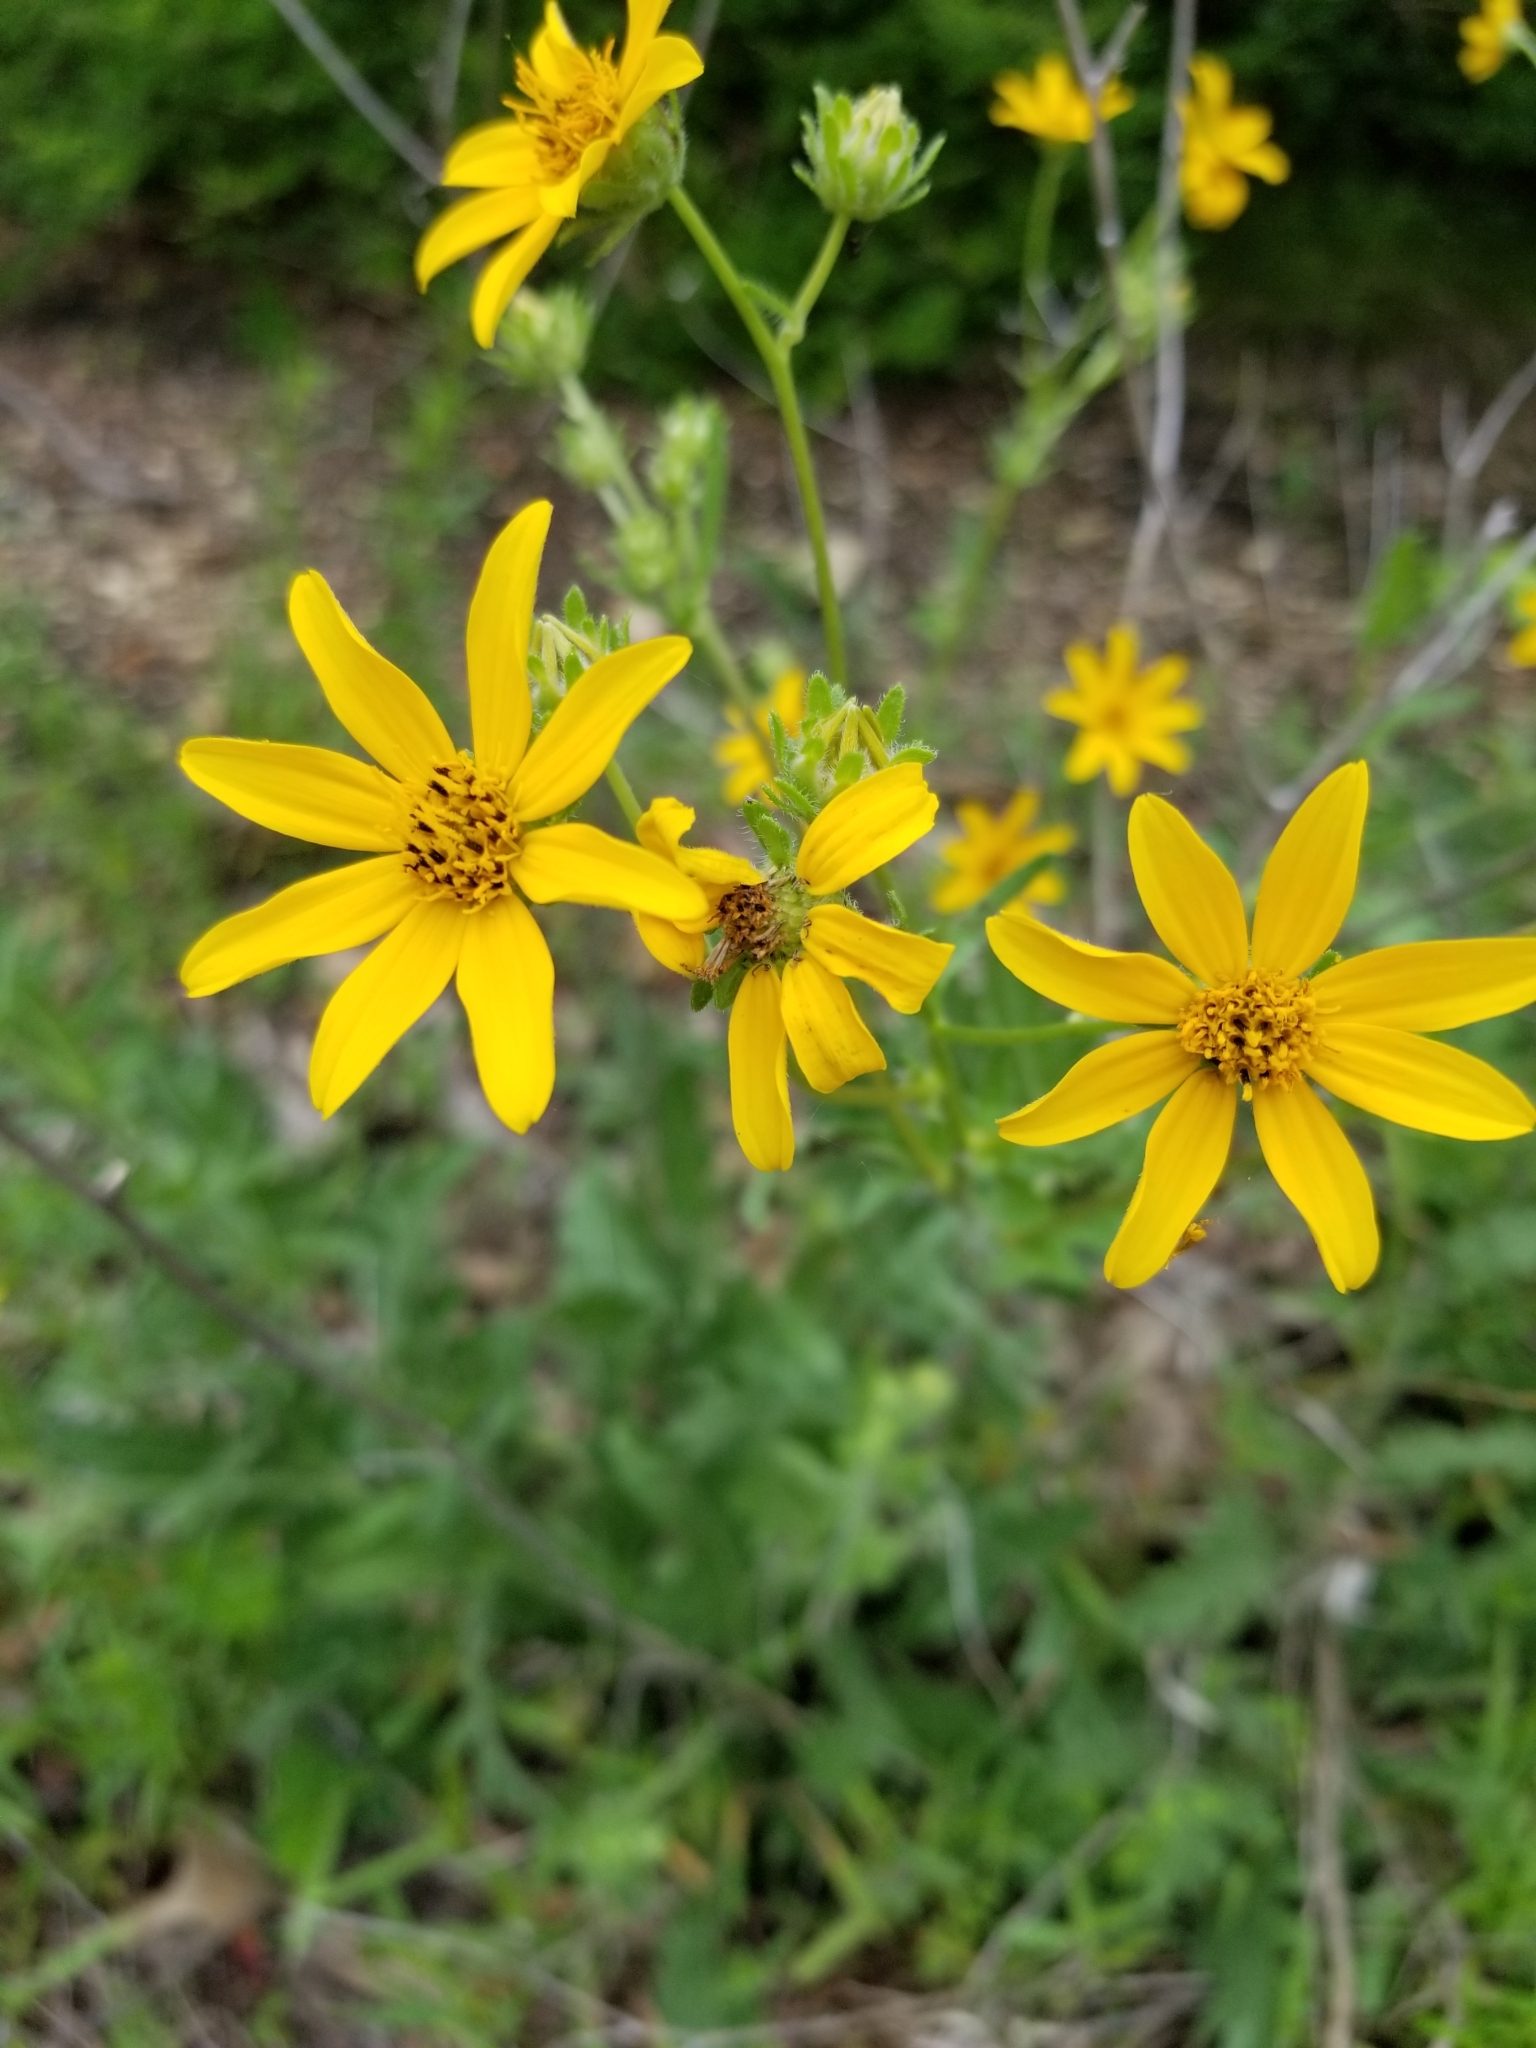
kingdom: Plantae
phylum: Tracheophyta
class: Magnoliopsida
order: Asterales
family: Asteraceae
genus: Engelmannia
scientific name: Engelmannia peristenia
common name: Engelmann's daisy
